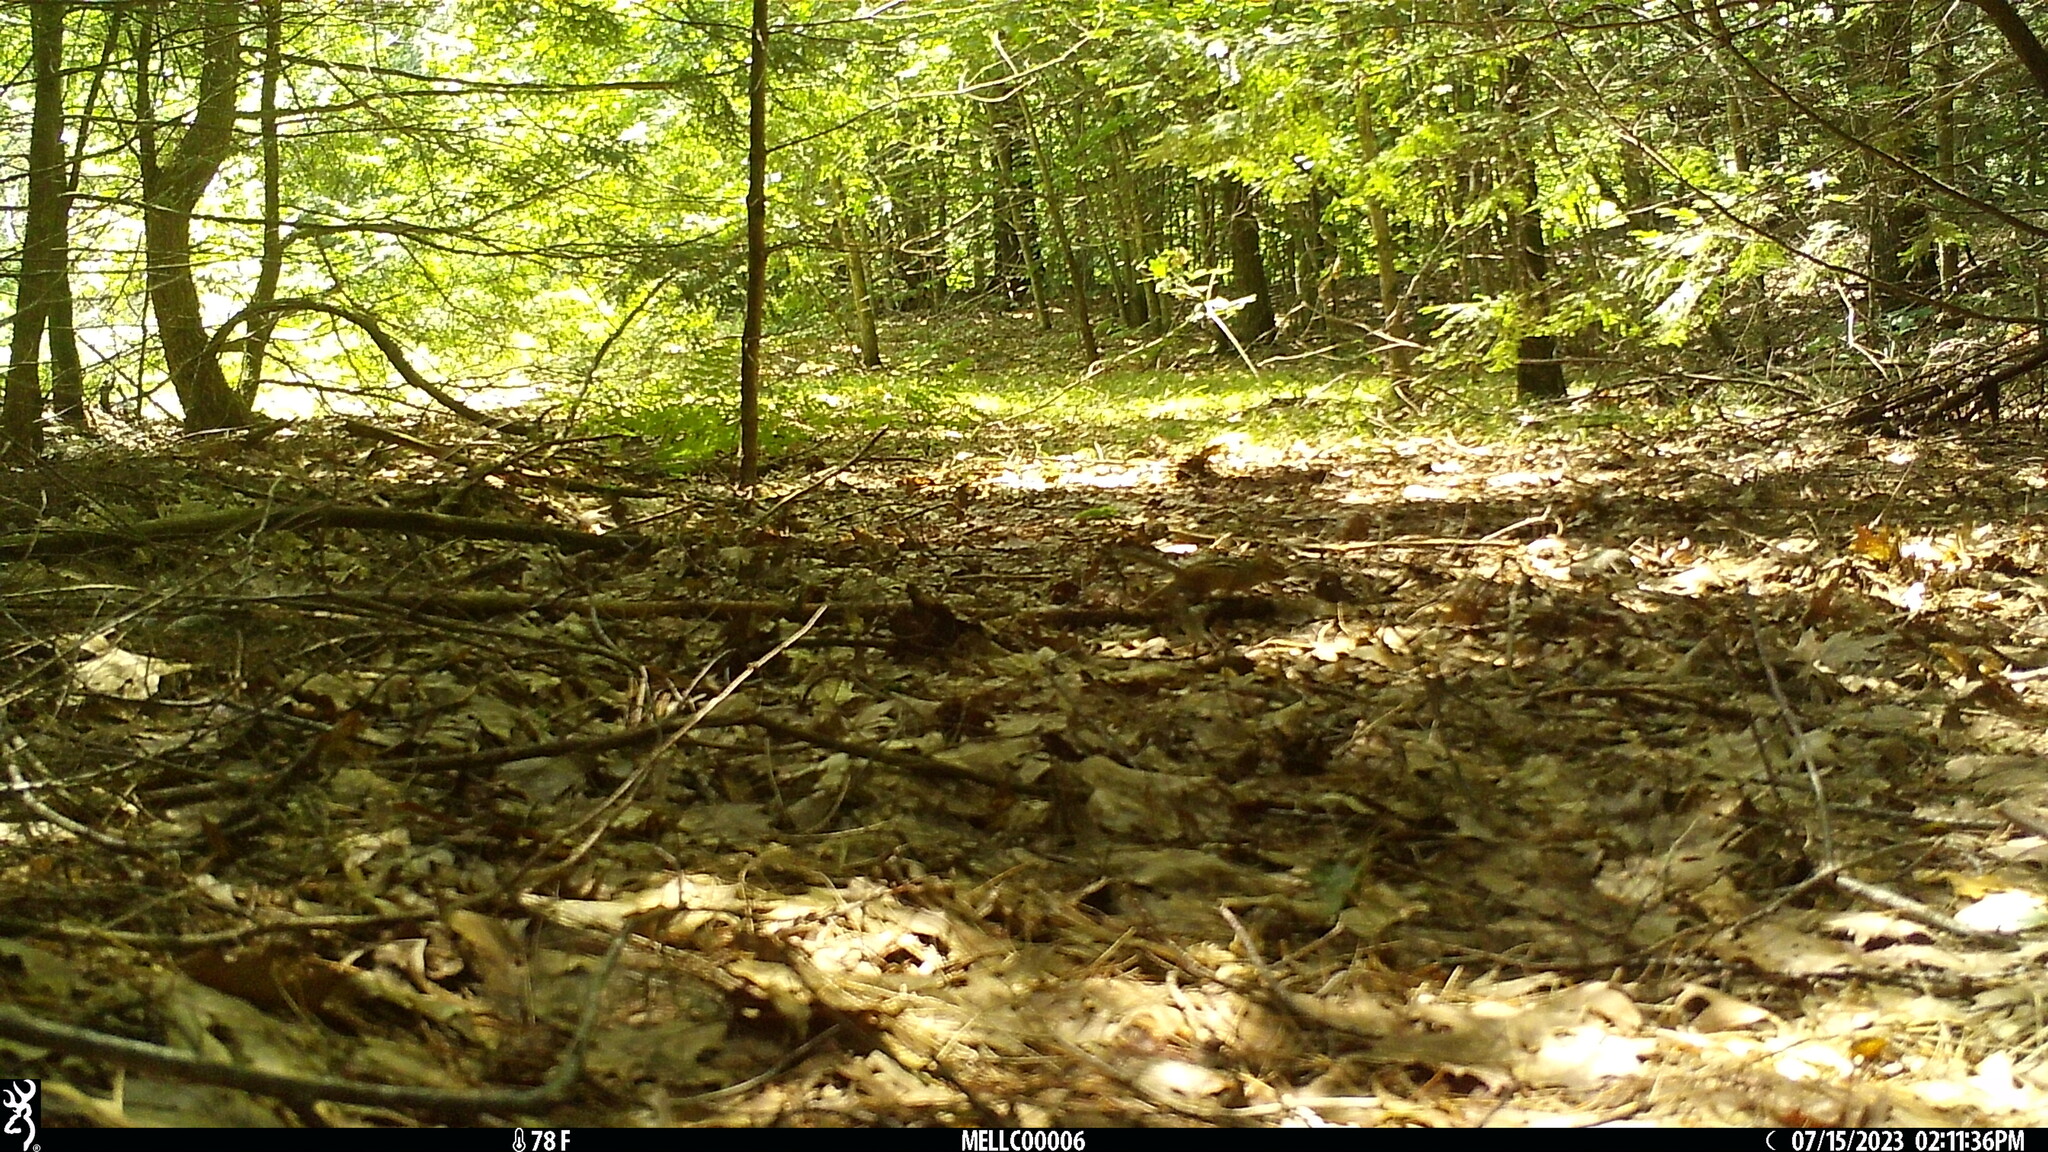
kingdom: Animalia
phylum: Chordata
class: Mammalia
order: Rodentia
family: Sciuridae
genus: Tamias
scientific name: Tamias striatus
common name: Eastern chipmunk
